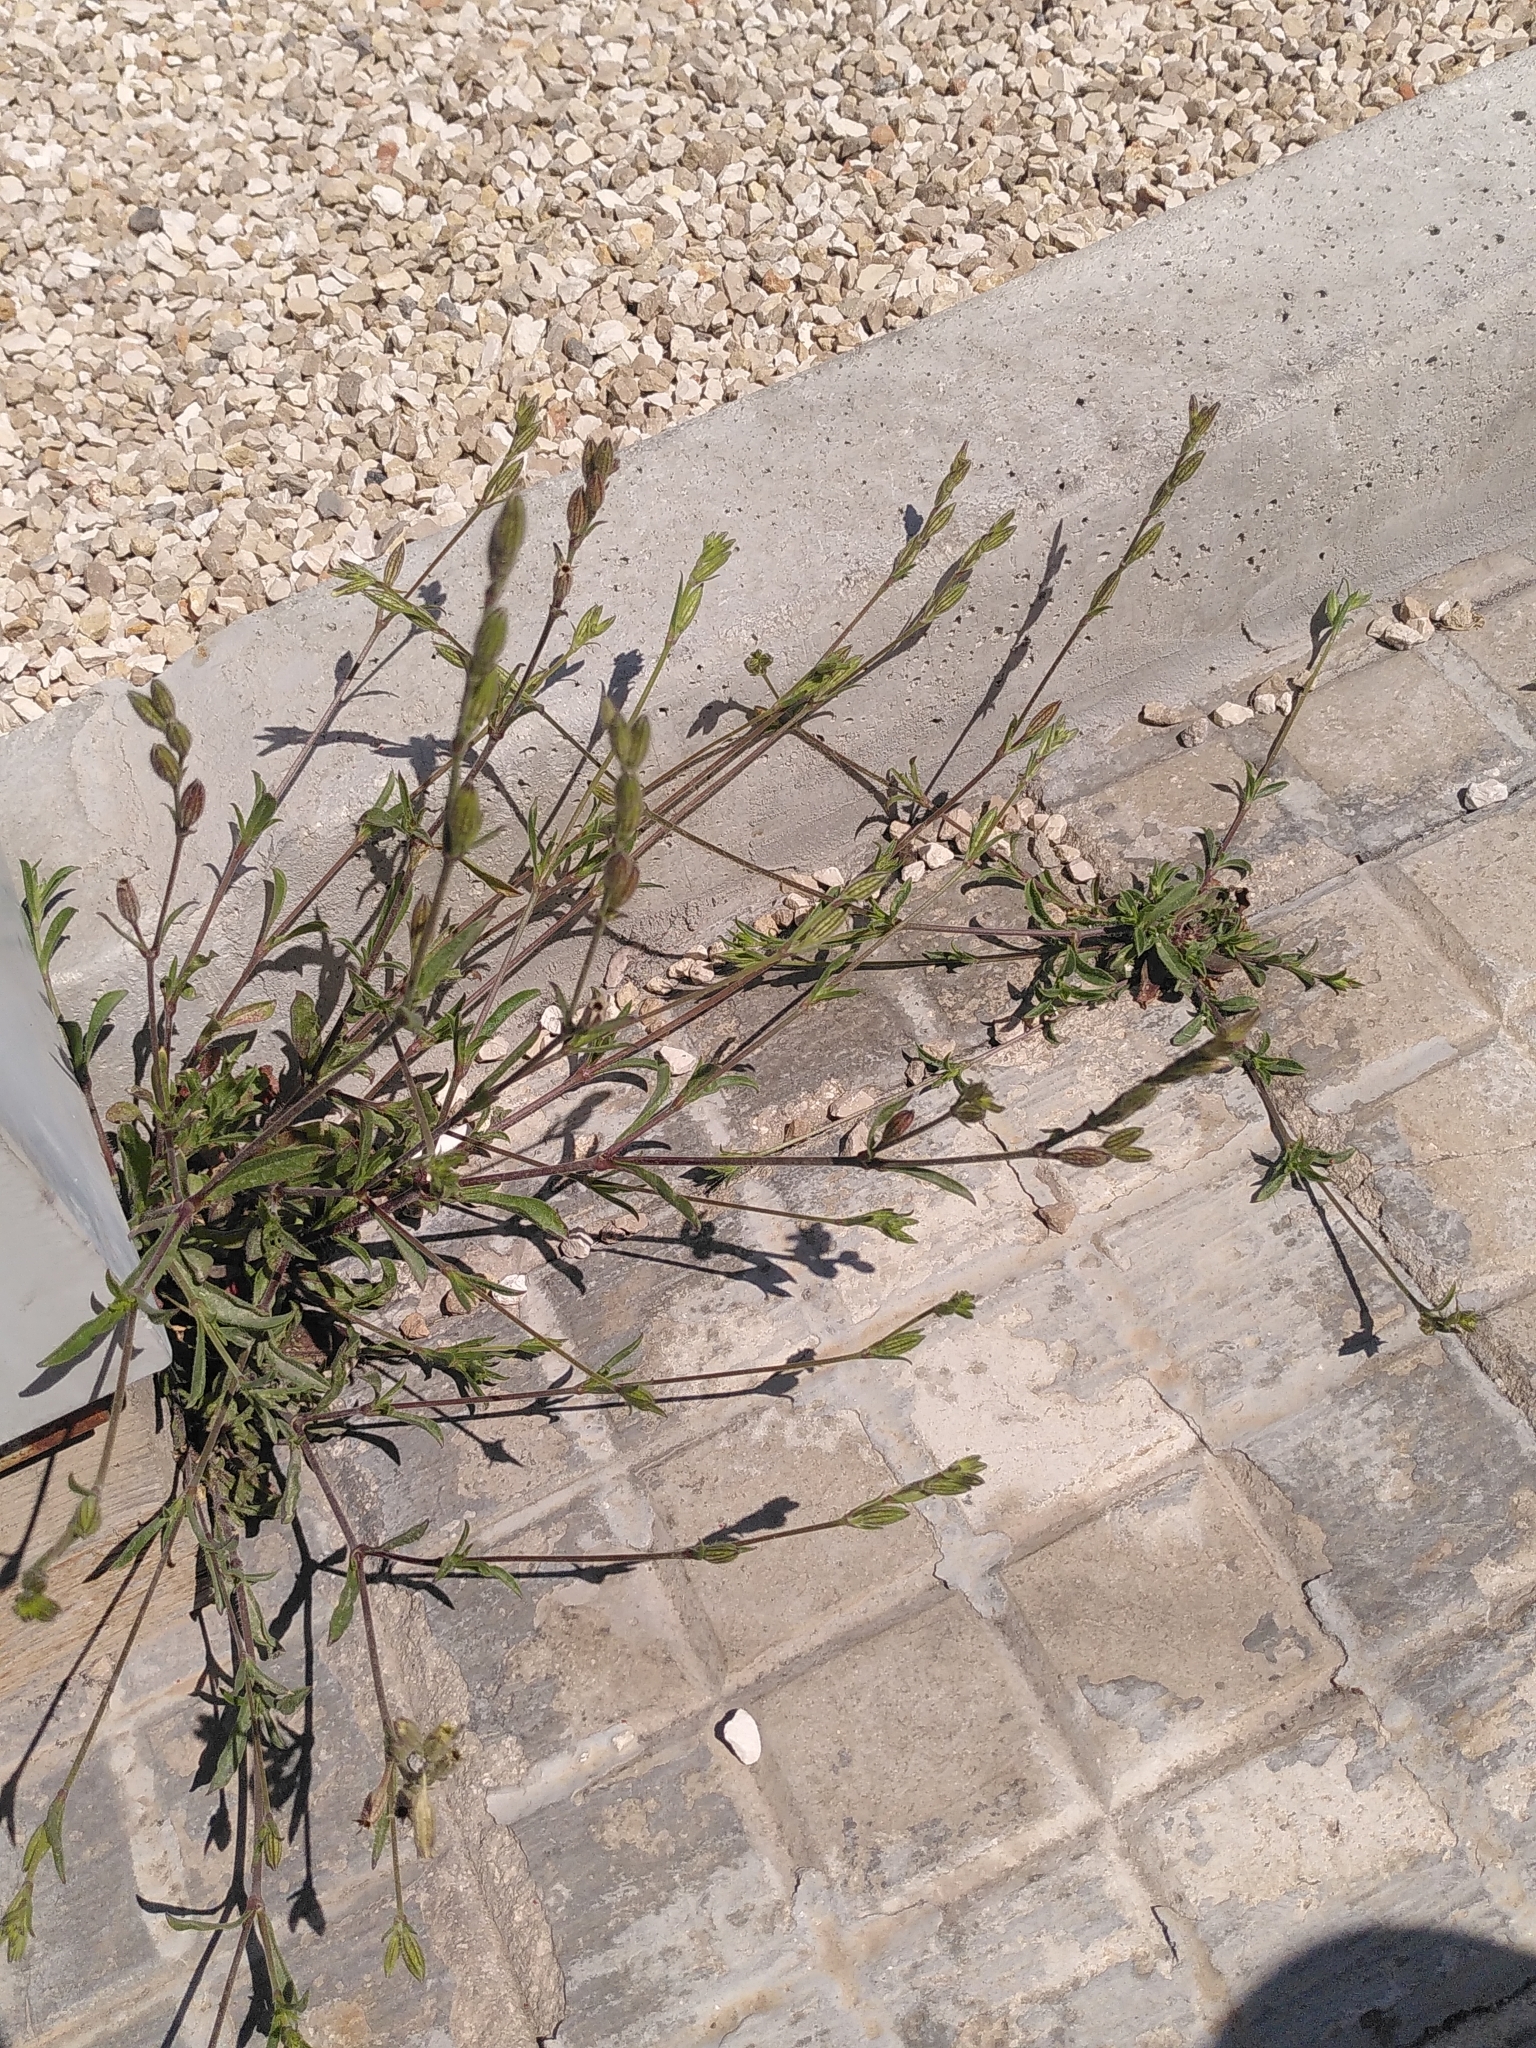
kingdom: Plantae
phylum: Tracheophyta
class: Magnoliopsida
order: Caryophyllales
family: Caryophyllaceae
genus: Silene
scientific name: Silene nocturna
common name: Mediterranean catchfly
